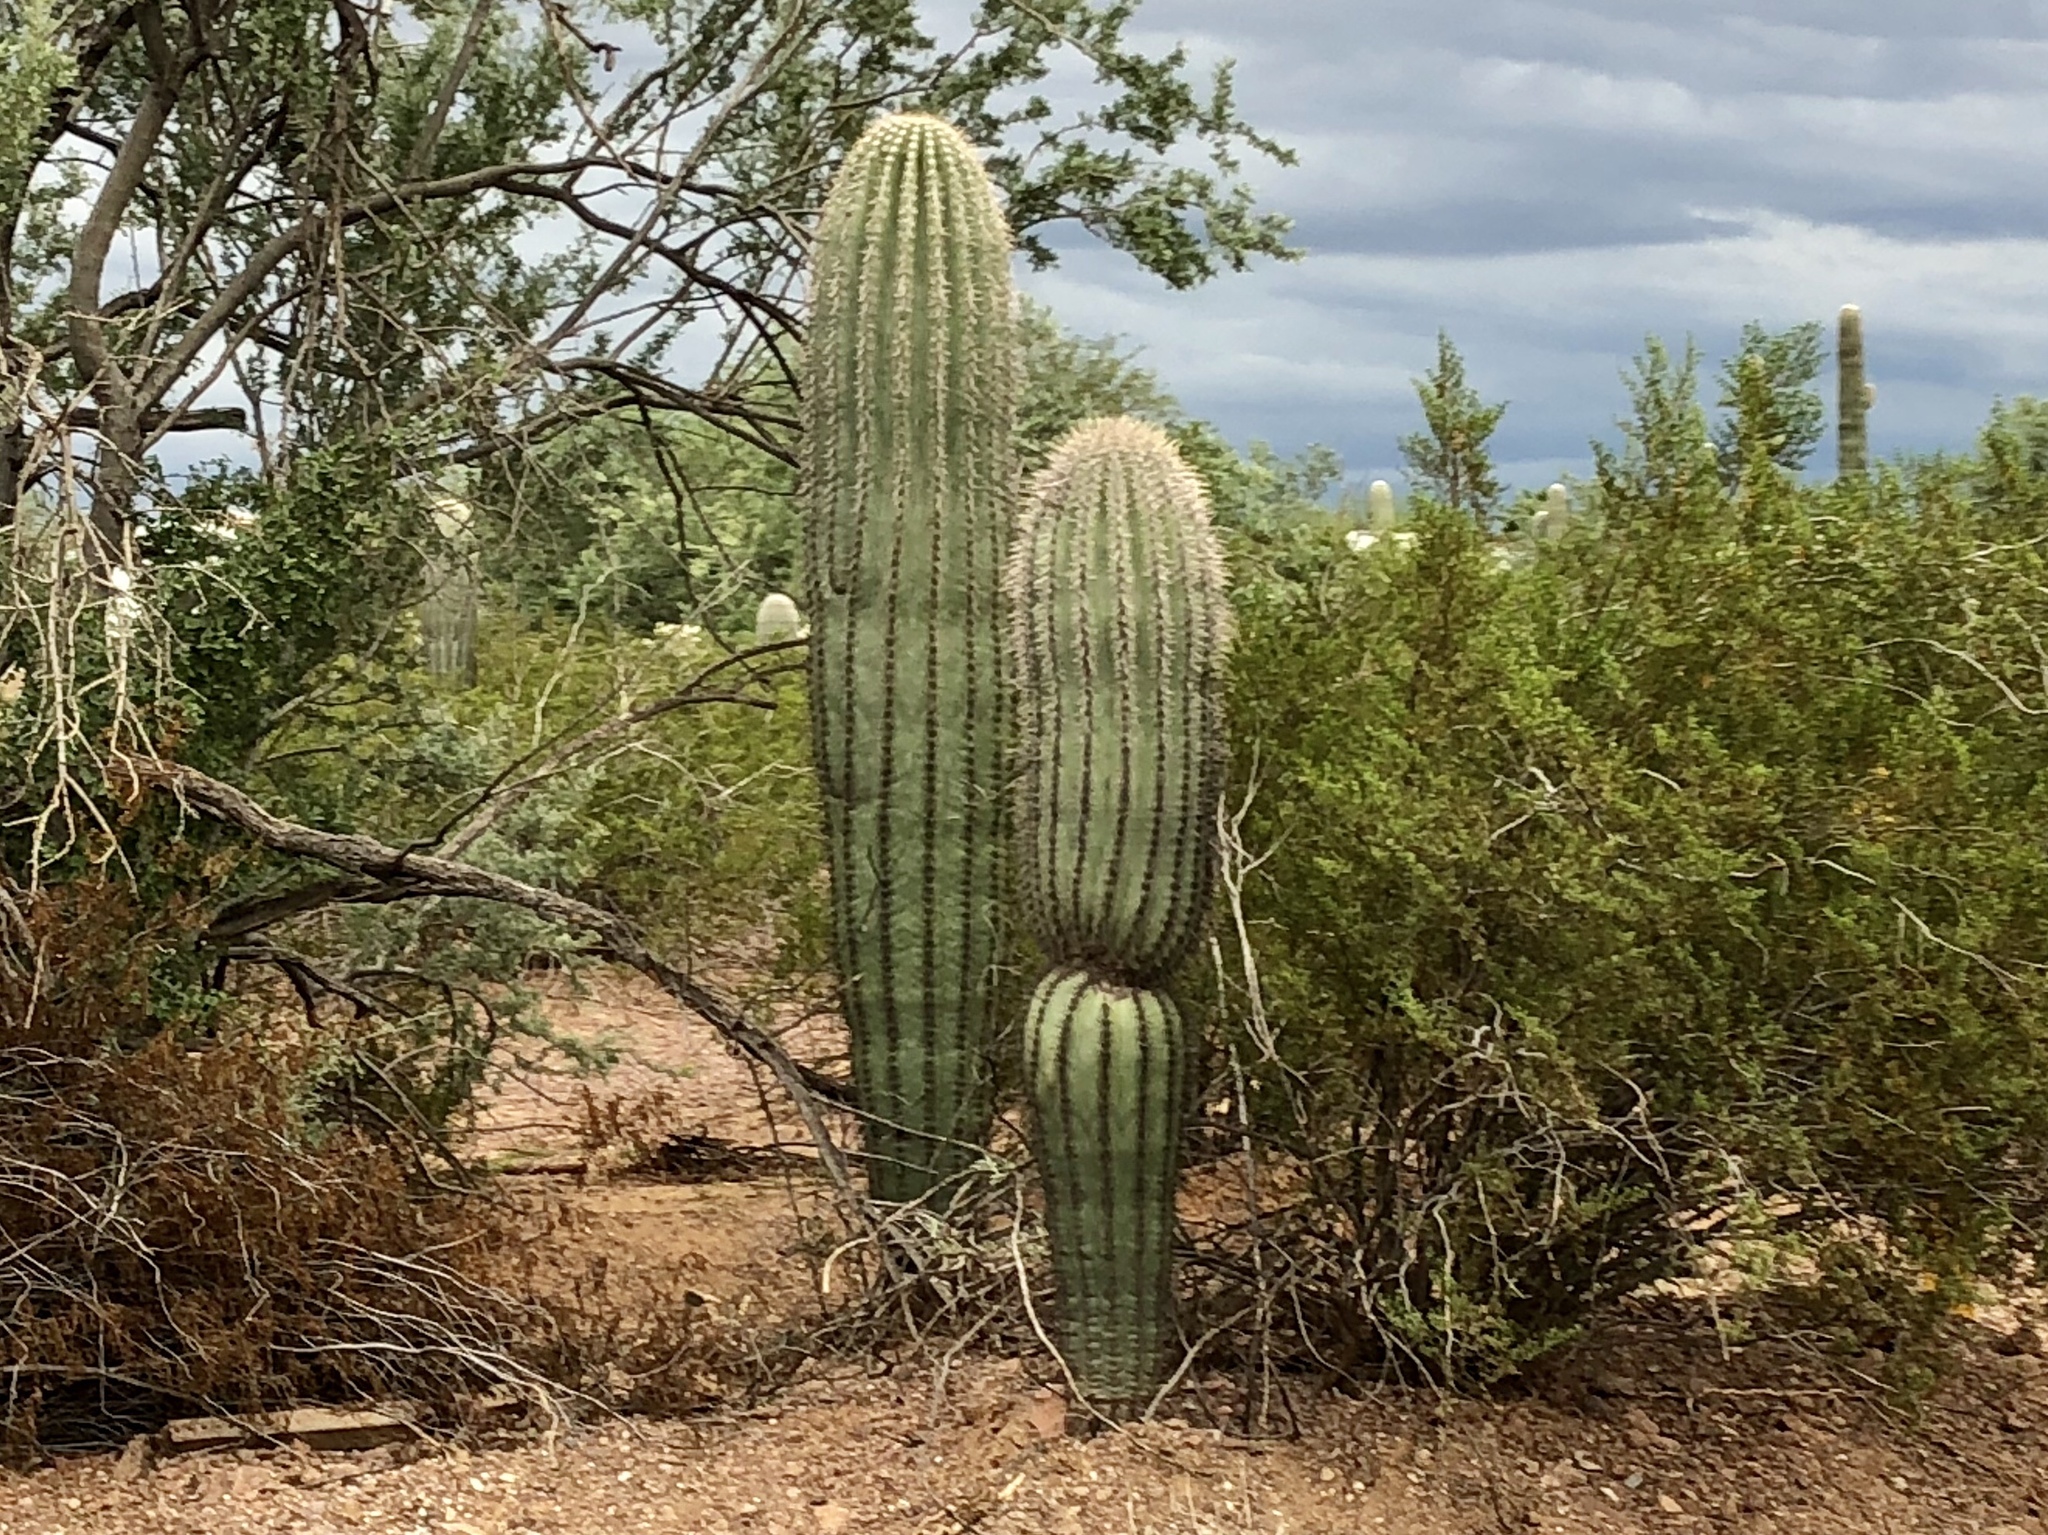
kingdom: Plantae
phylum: Tracheophyta
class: Magnoliopsida
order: Caryophyllales
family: Cactaceae
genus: Carnegiea
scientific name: Carnegiea gigantea
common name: Saguaro
